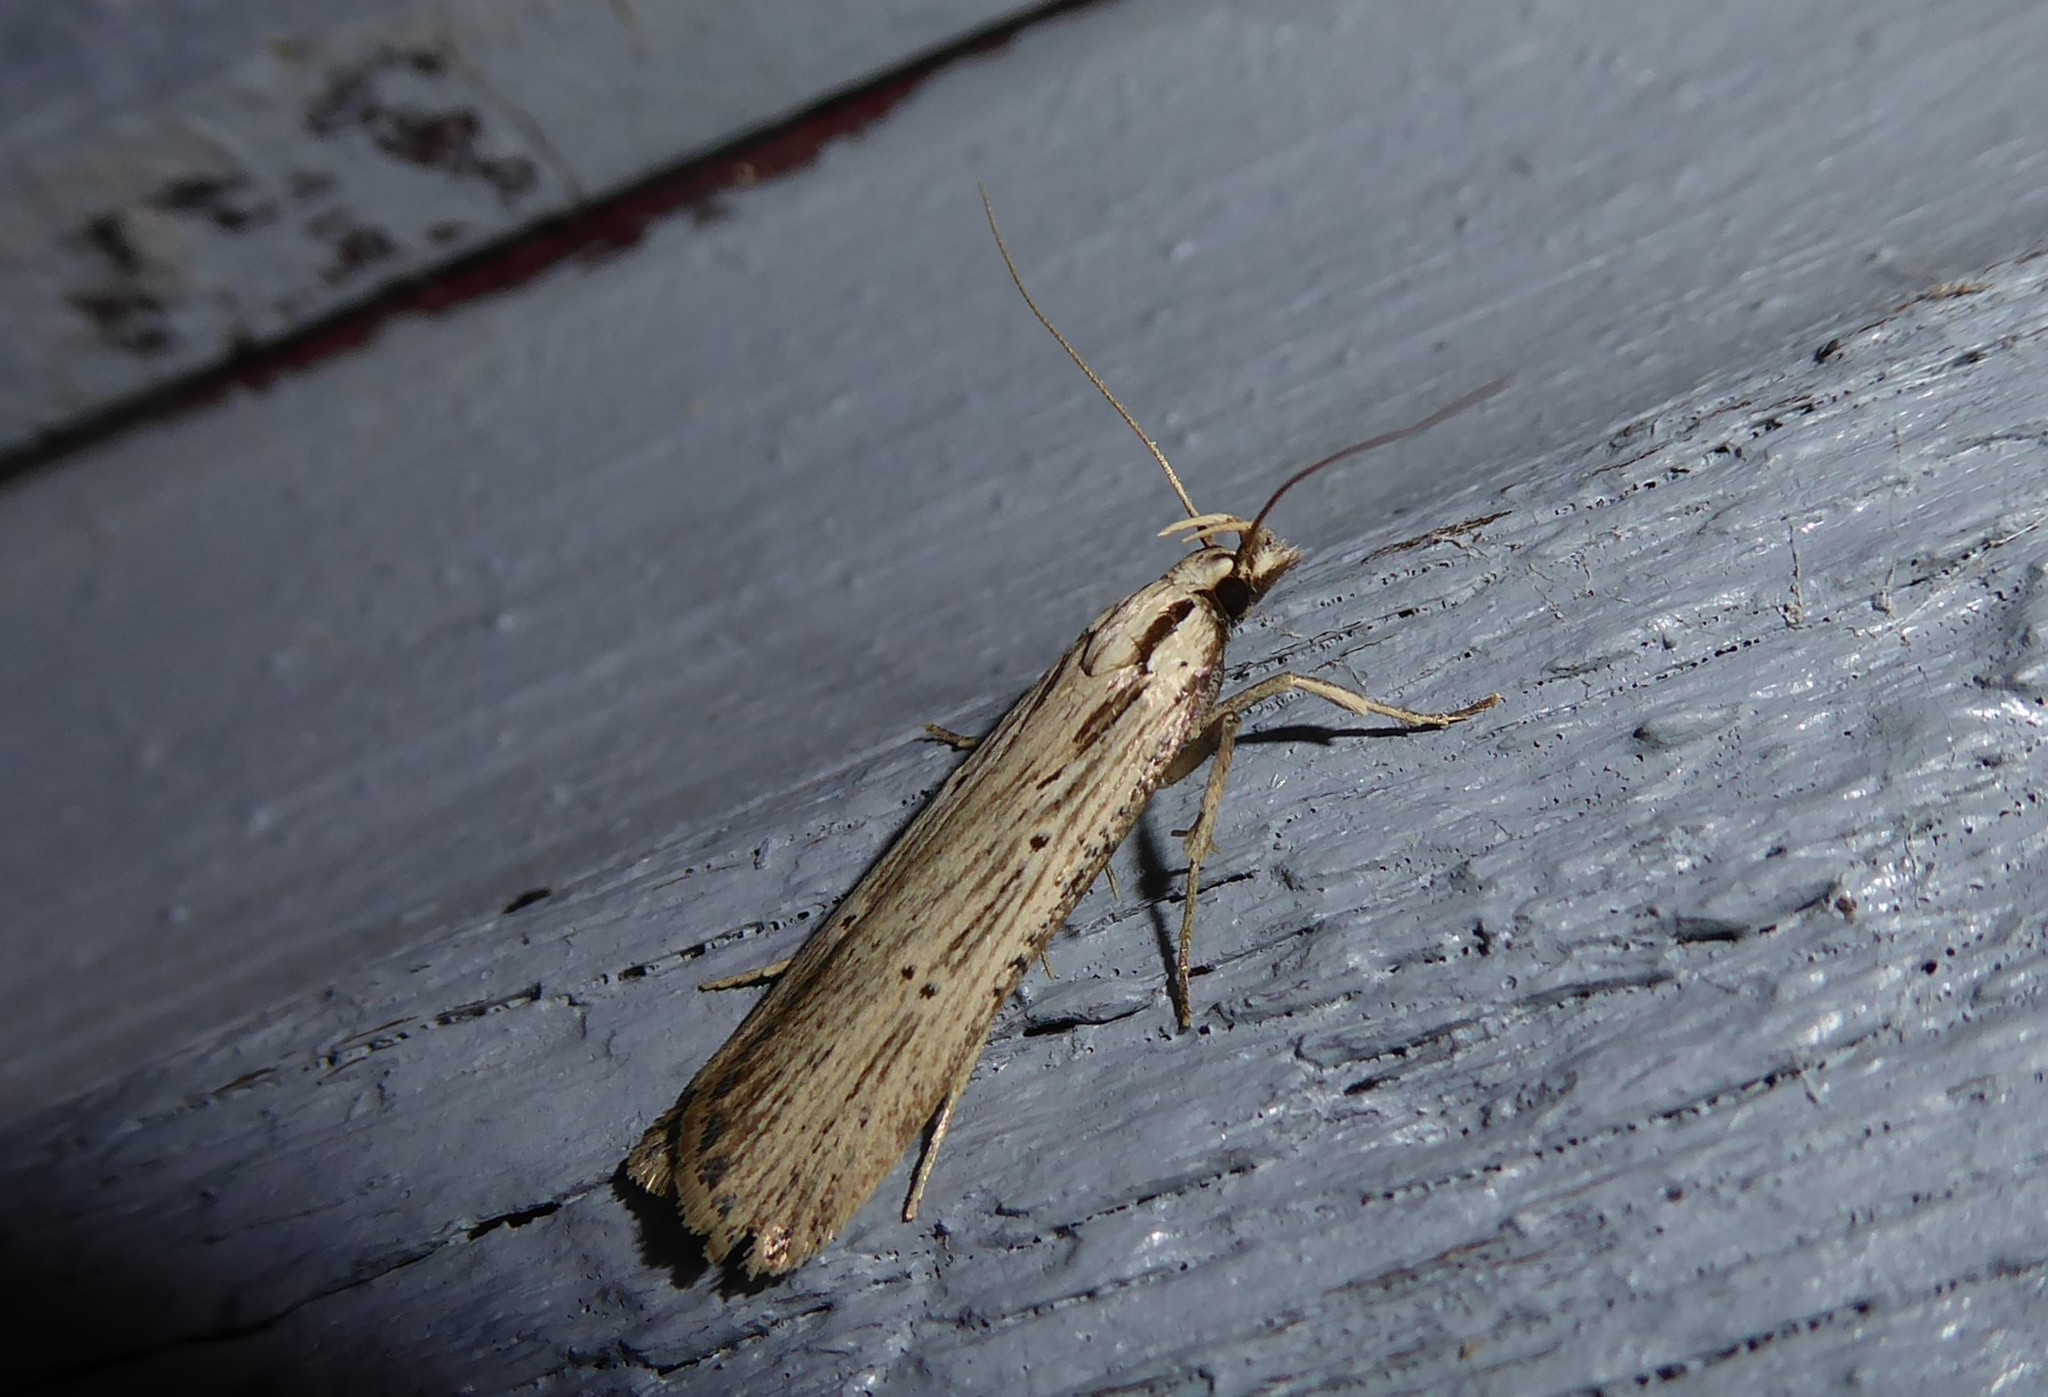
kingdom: Animalia
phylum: Arthropoda
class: Insecta
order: Lepidoptera
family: Gelechiidae
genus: Anisoplaca
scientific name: Anisoplaca ptyoptera
